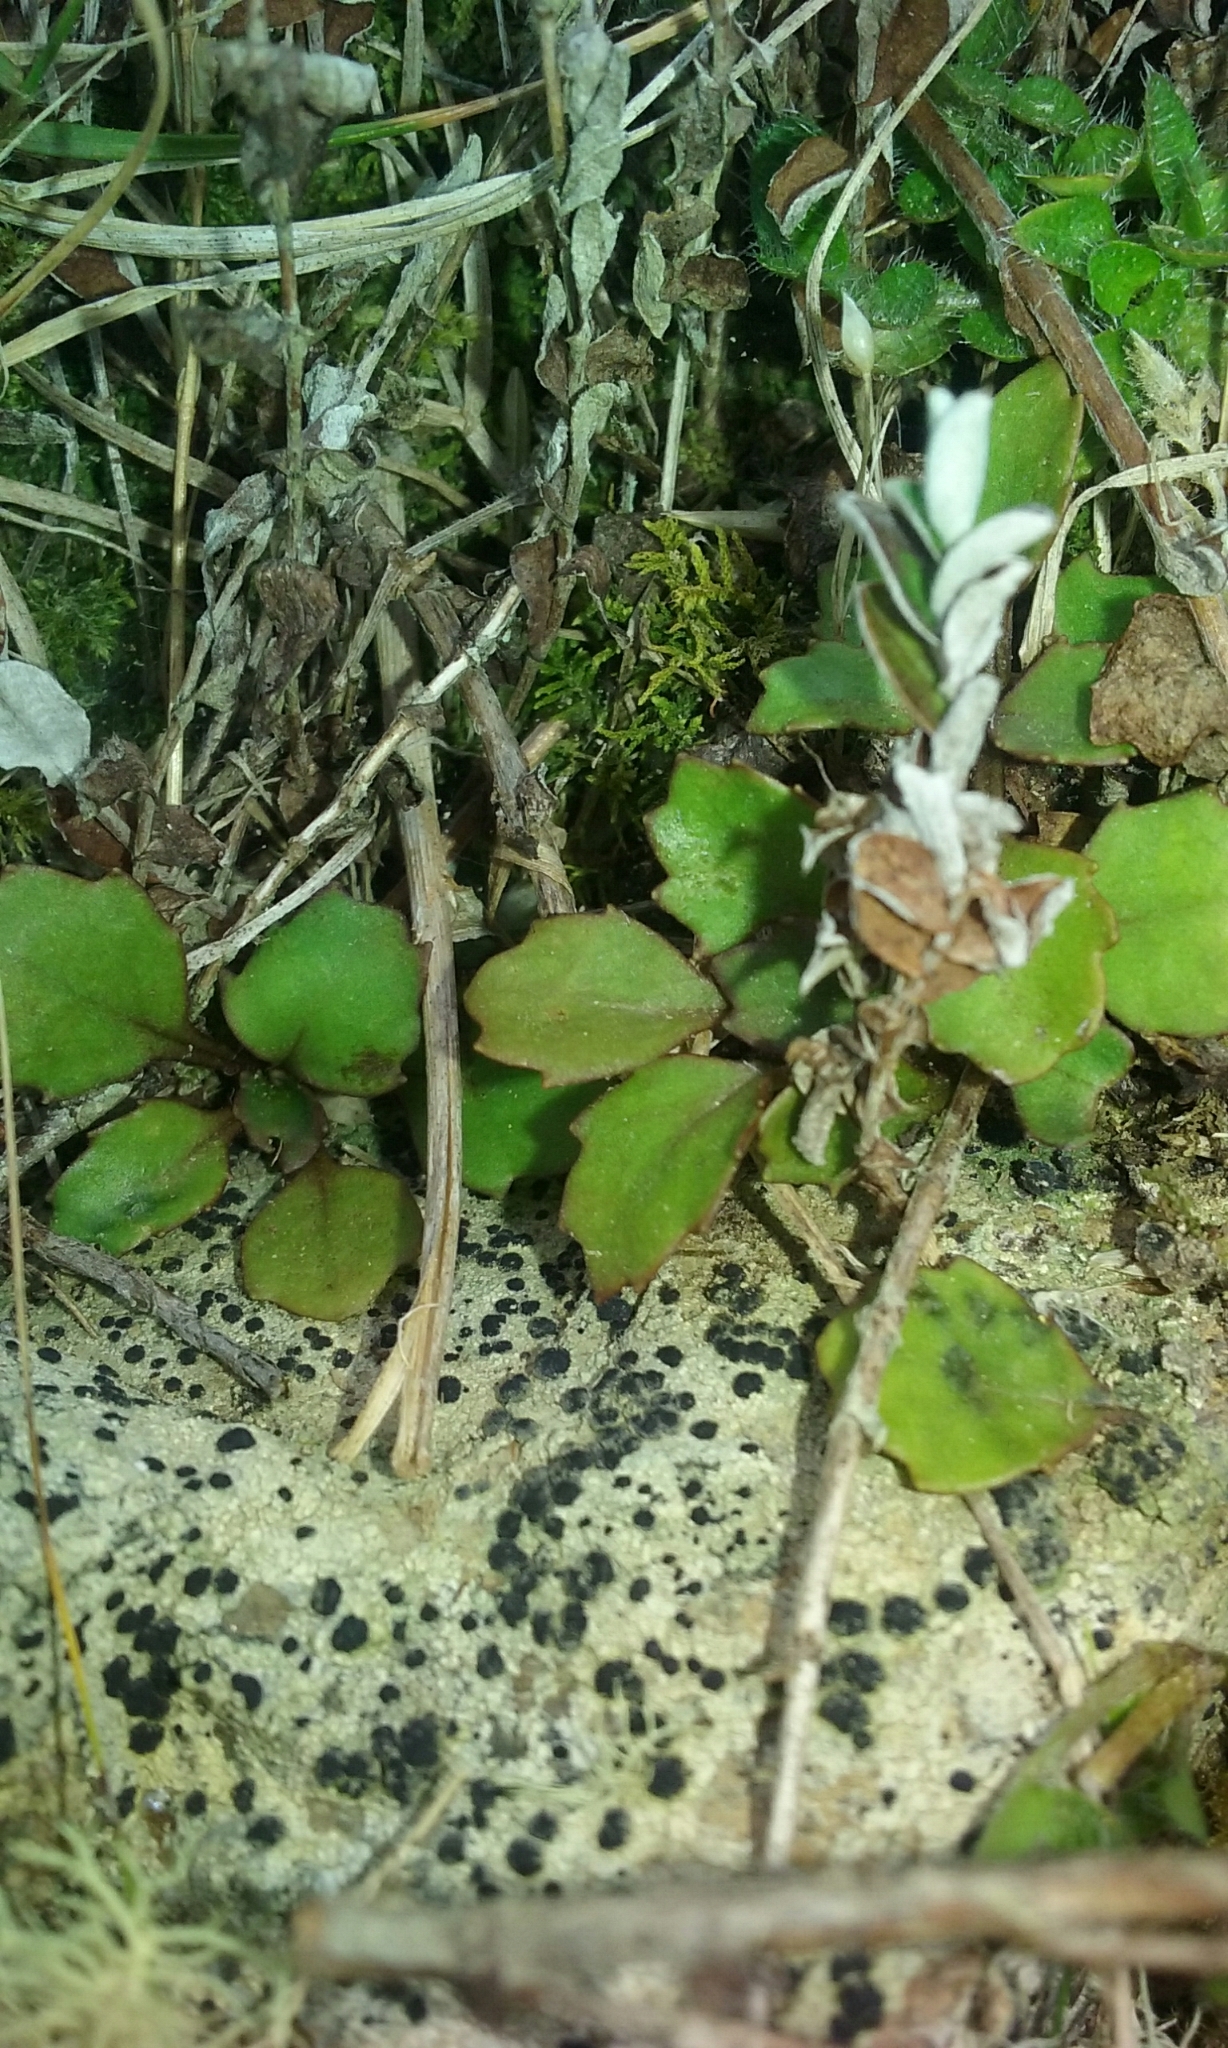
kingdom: Plantae
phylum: Tracheophyta
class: Magnoliopsida
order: Asterales
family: Asteraceae
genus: Lagenophora
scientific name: Lagenophora pumila
